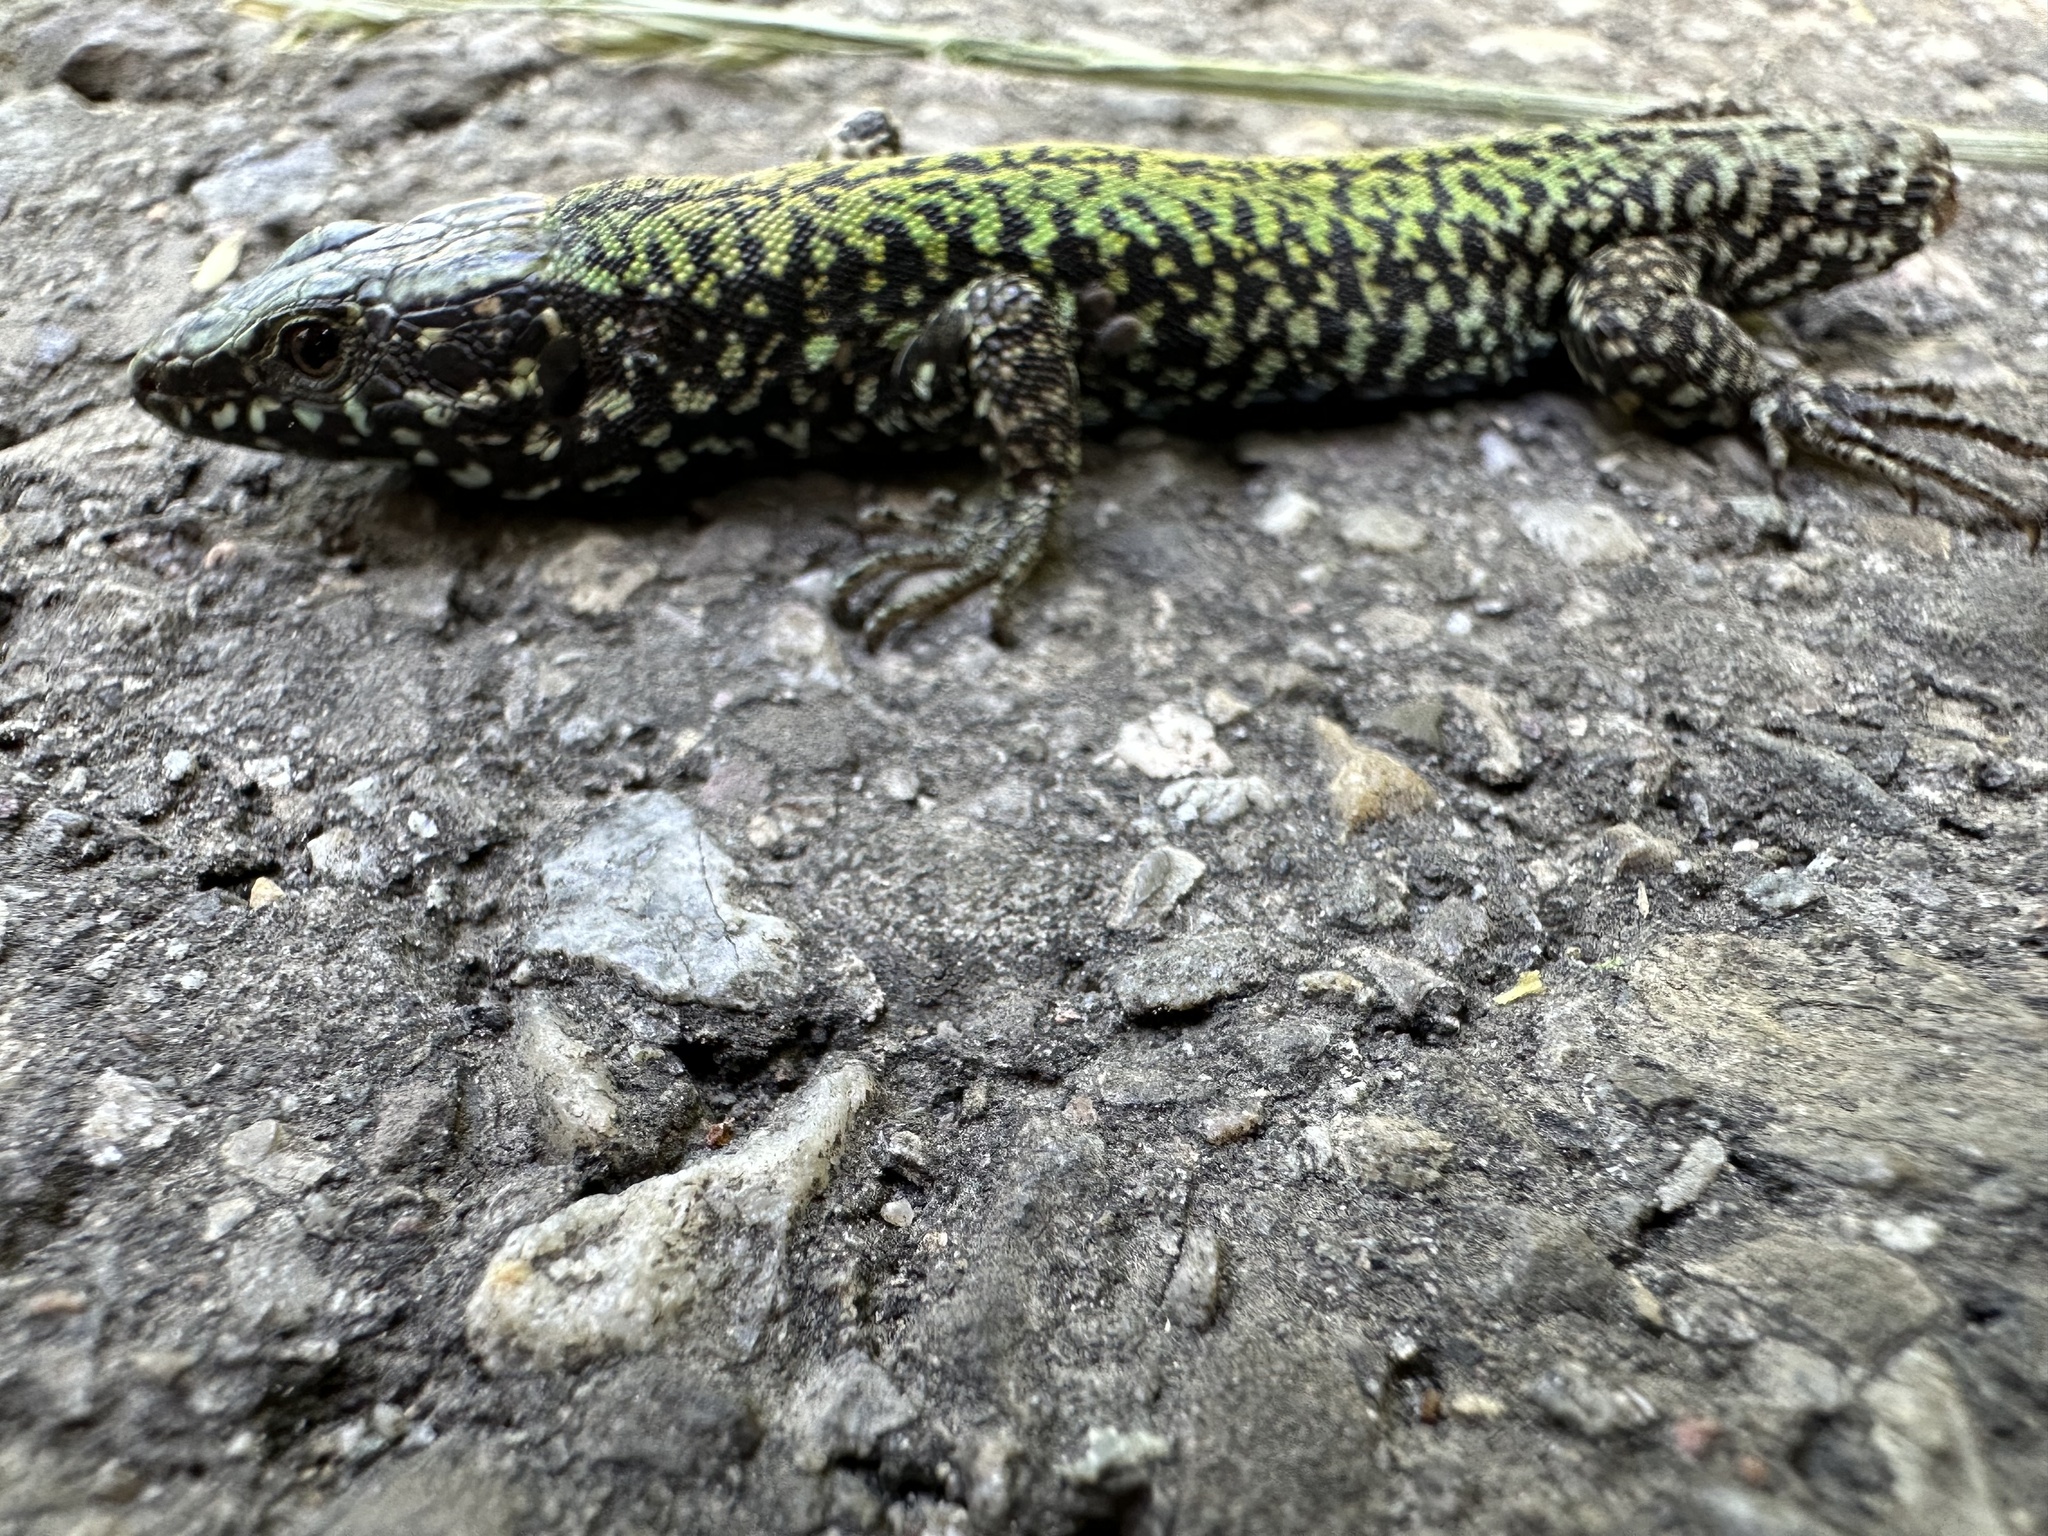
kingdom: Animalia
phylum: Chordata
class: Squamata
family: Lacertidae
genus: Podarcis
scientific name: Podarcis muralis
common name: Common wall lizard
